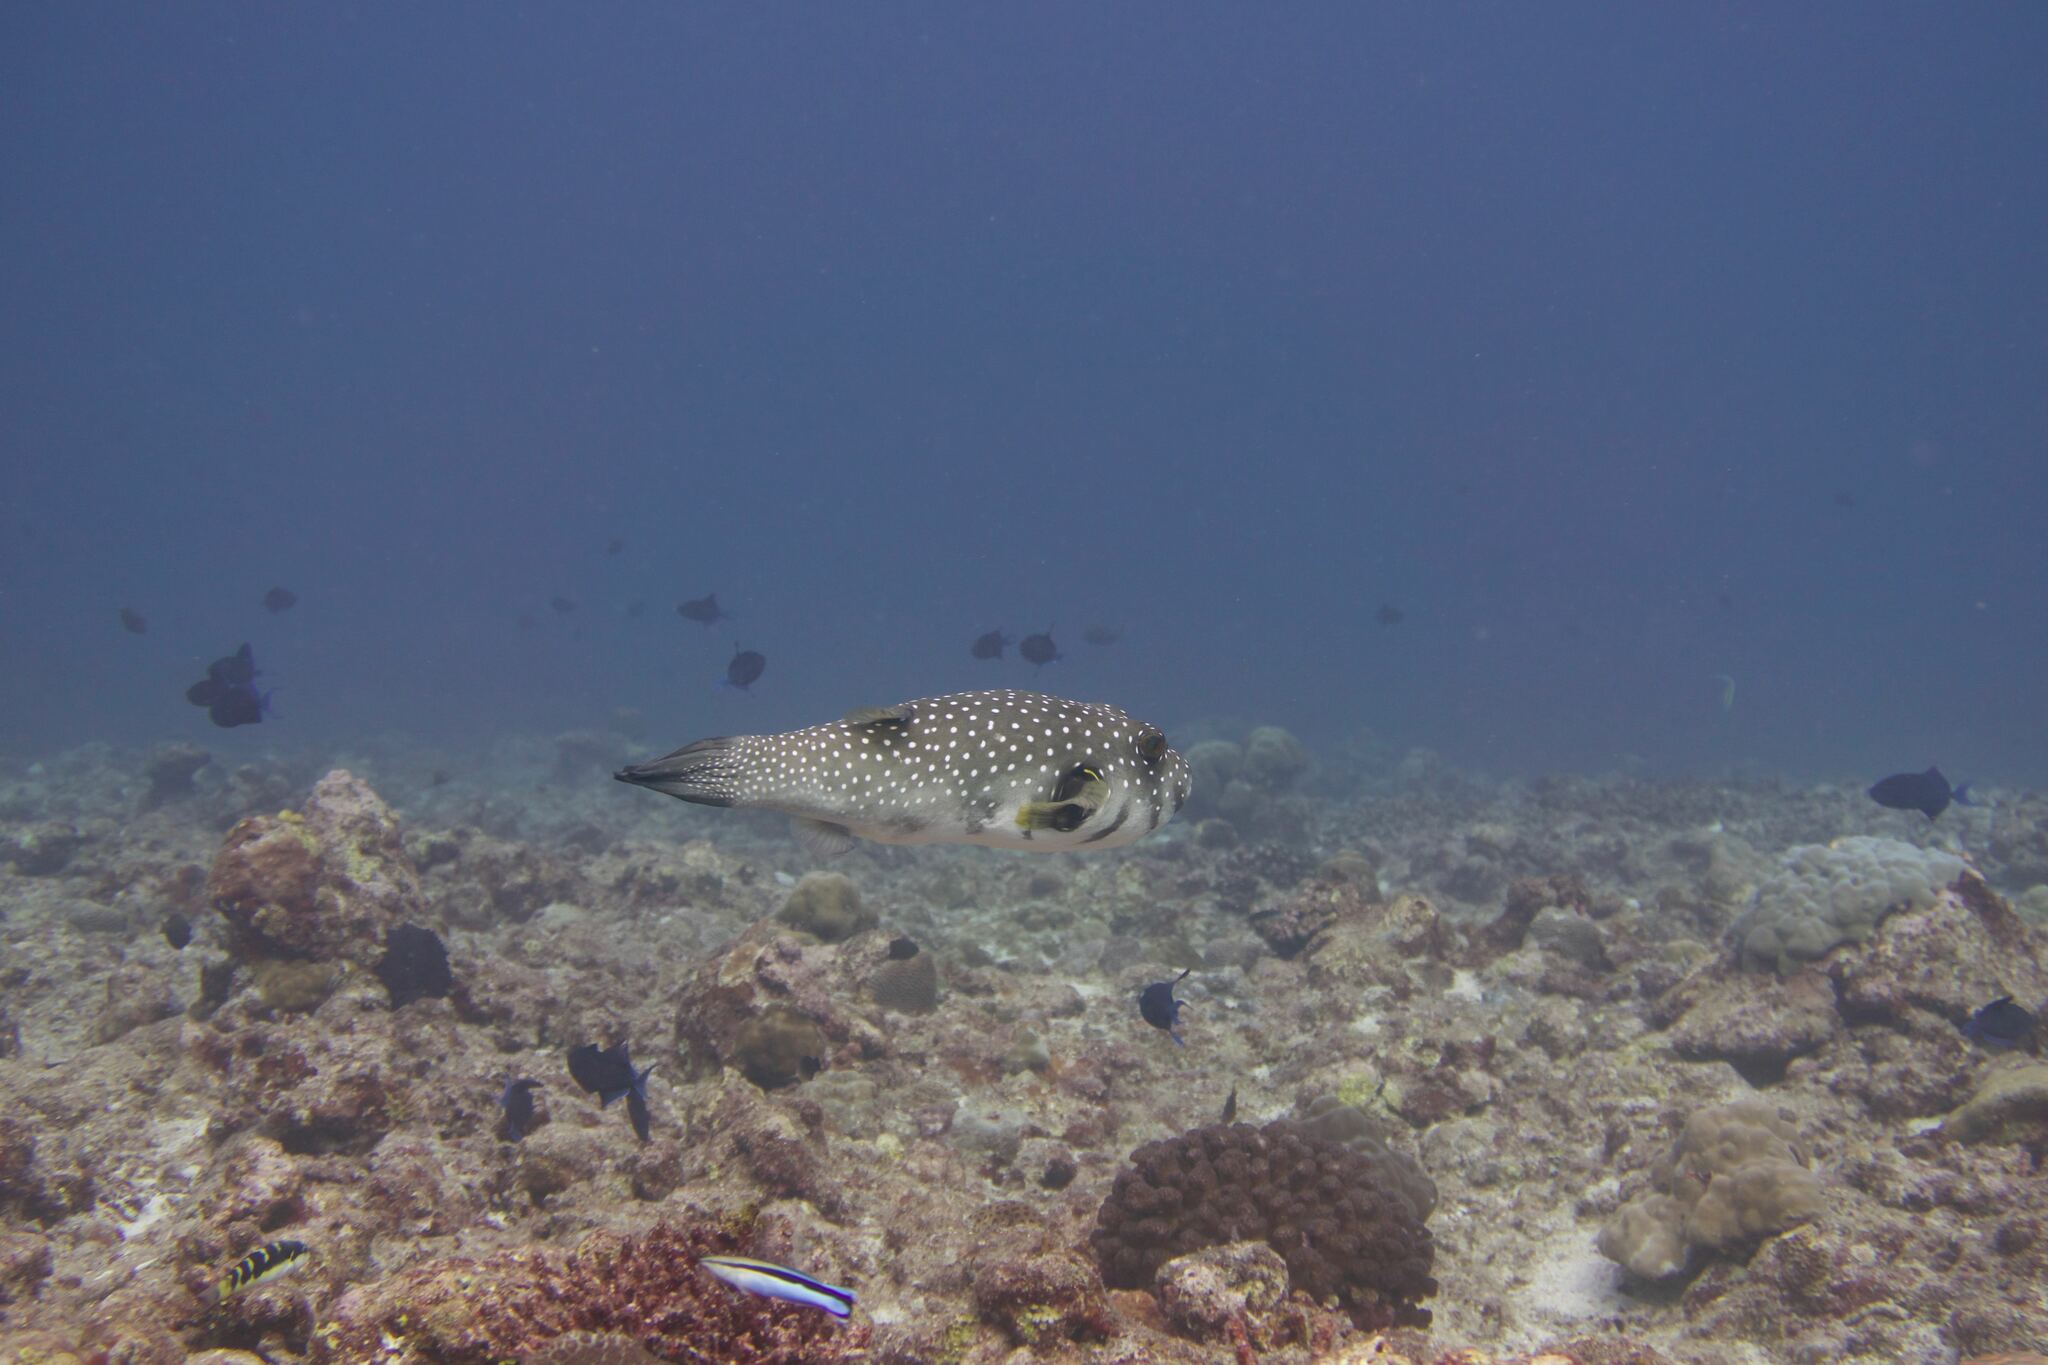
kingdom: Animalia
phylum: Chordata
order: Tetraodontiformes
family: Tetraodontidae
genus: Arothron
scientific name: Arothron hispidus
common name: Stripebelly puffer
